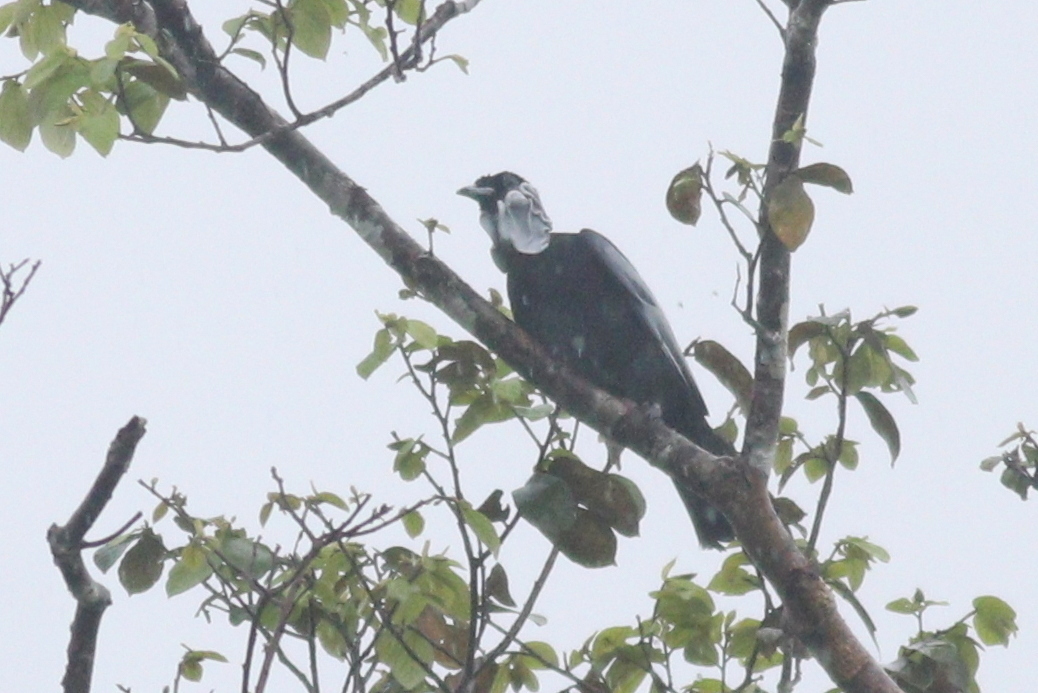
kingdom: Animalia
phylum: Chordata
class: Aves
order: Passeriformes
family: Cotingidae
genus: Gymnoderus
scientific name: Gymnoderus foetidus
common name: Bare-necked fruitcrow
